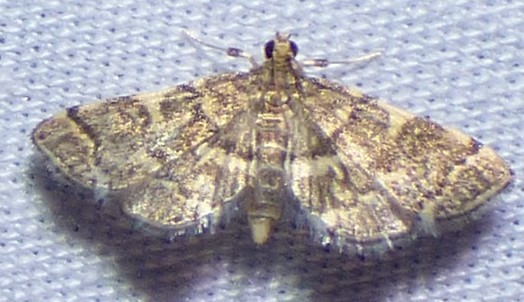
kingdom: Animalia
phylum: Arthropoda
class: Insecta
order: Lepidoptera
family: Crambidae
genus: Anageshna
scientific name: Anageshna primordialis
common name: Yellow-spotted webworm moth
